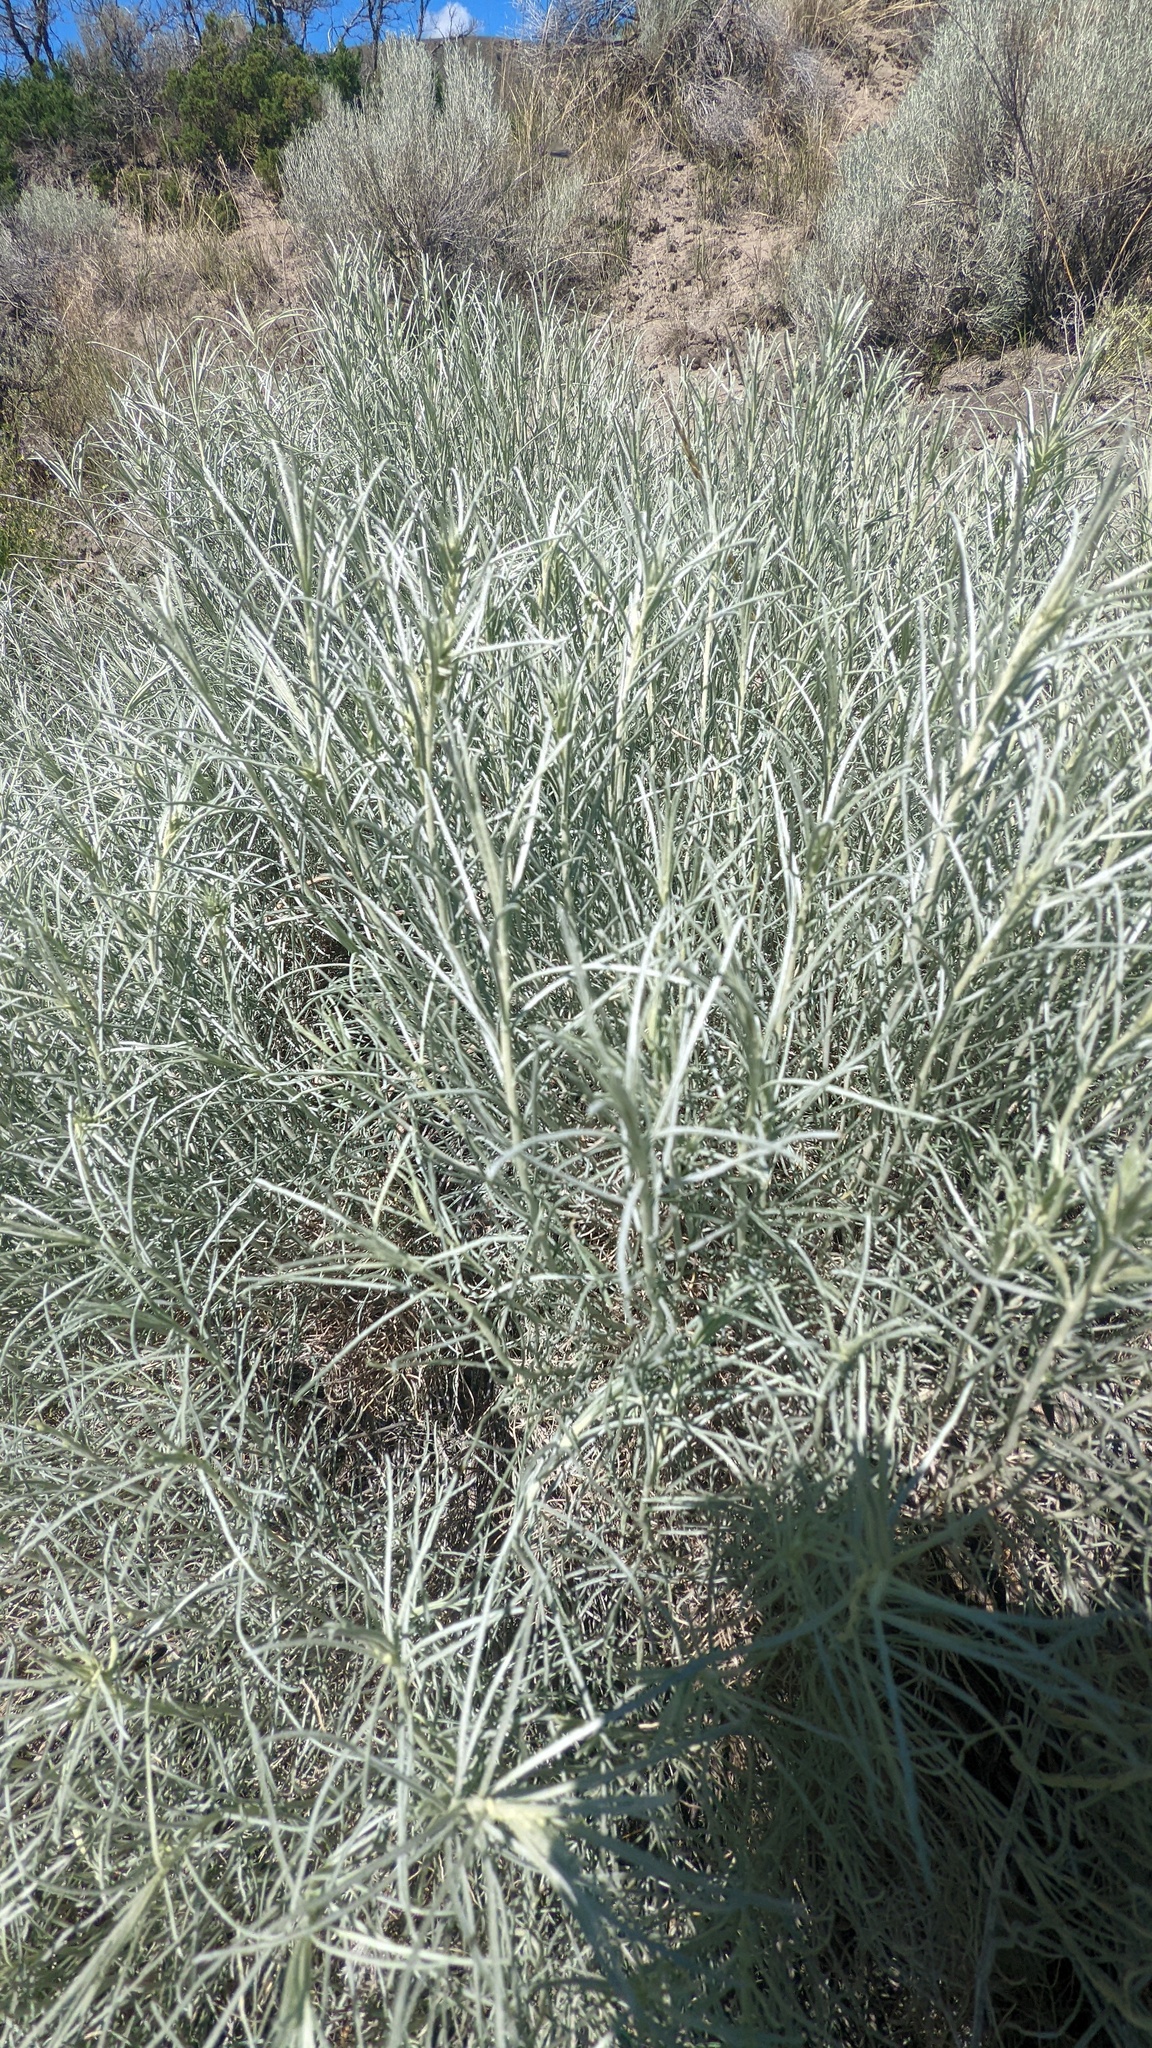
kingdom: Plantae
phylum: Tracheophyta
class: Magnoliopsida
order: Asterales
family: Asteraceae
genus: Ericameria
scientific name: Ericameria nauseosa
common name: Rubber rabbitbrush
